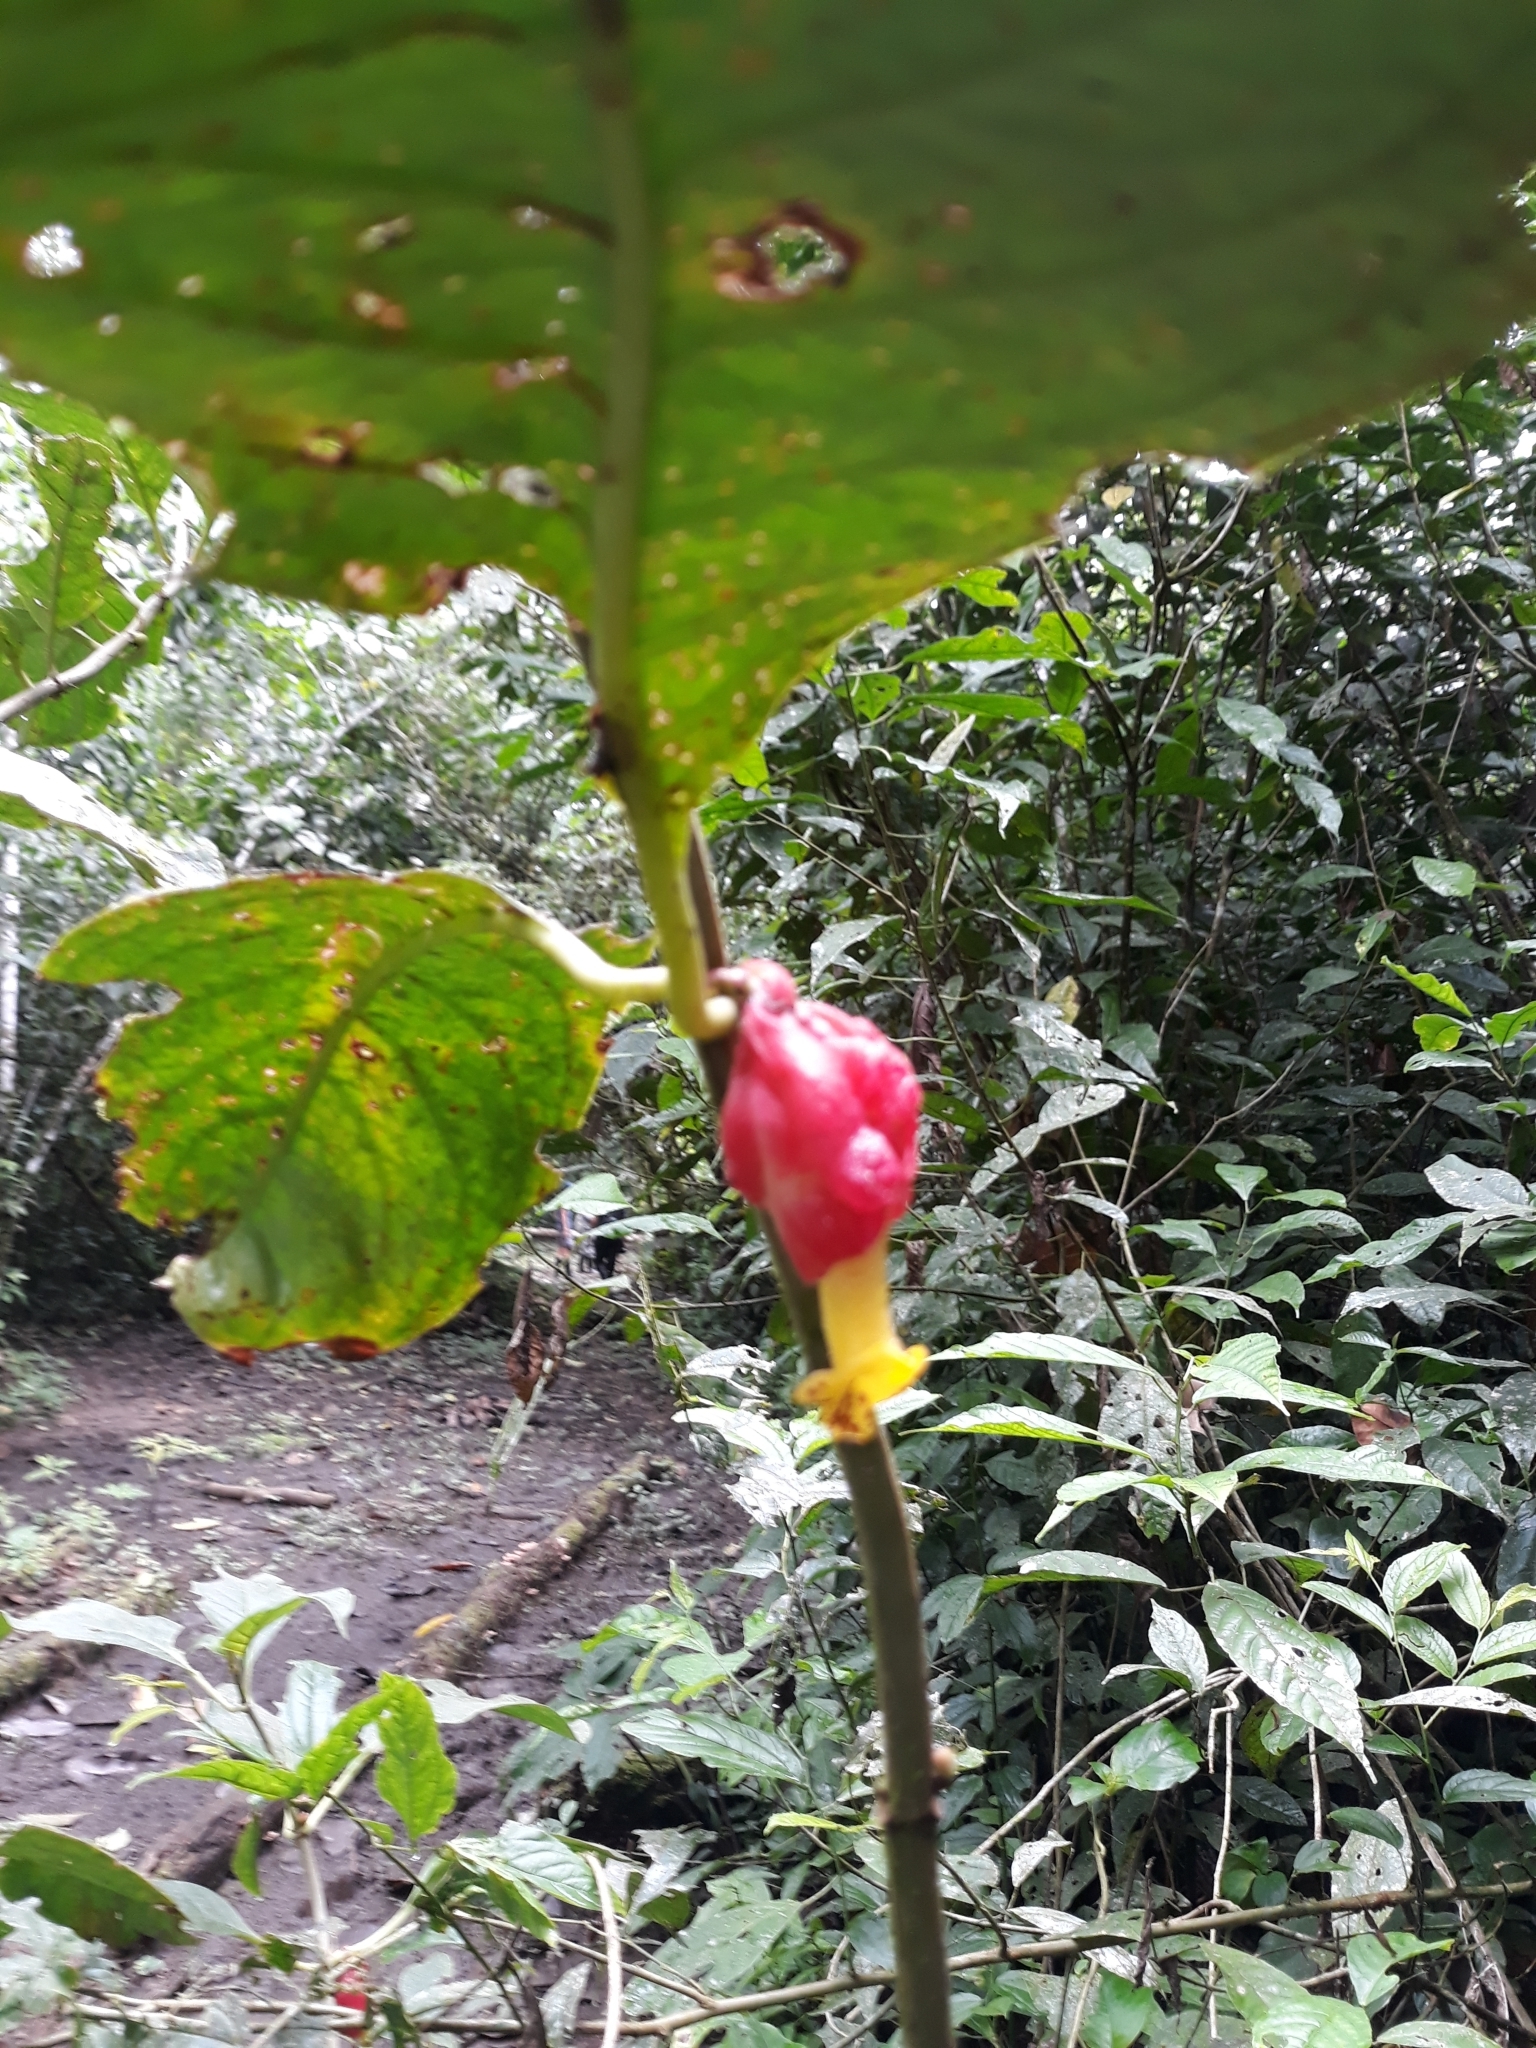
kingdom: Plantae
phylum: Tracheophyta
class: Magnoliopsida
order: Lamiales
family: Gesneriaceae
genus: Drymonia
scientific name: Drymonia coccinea
